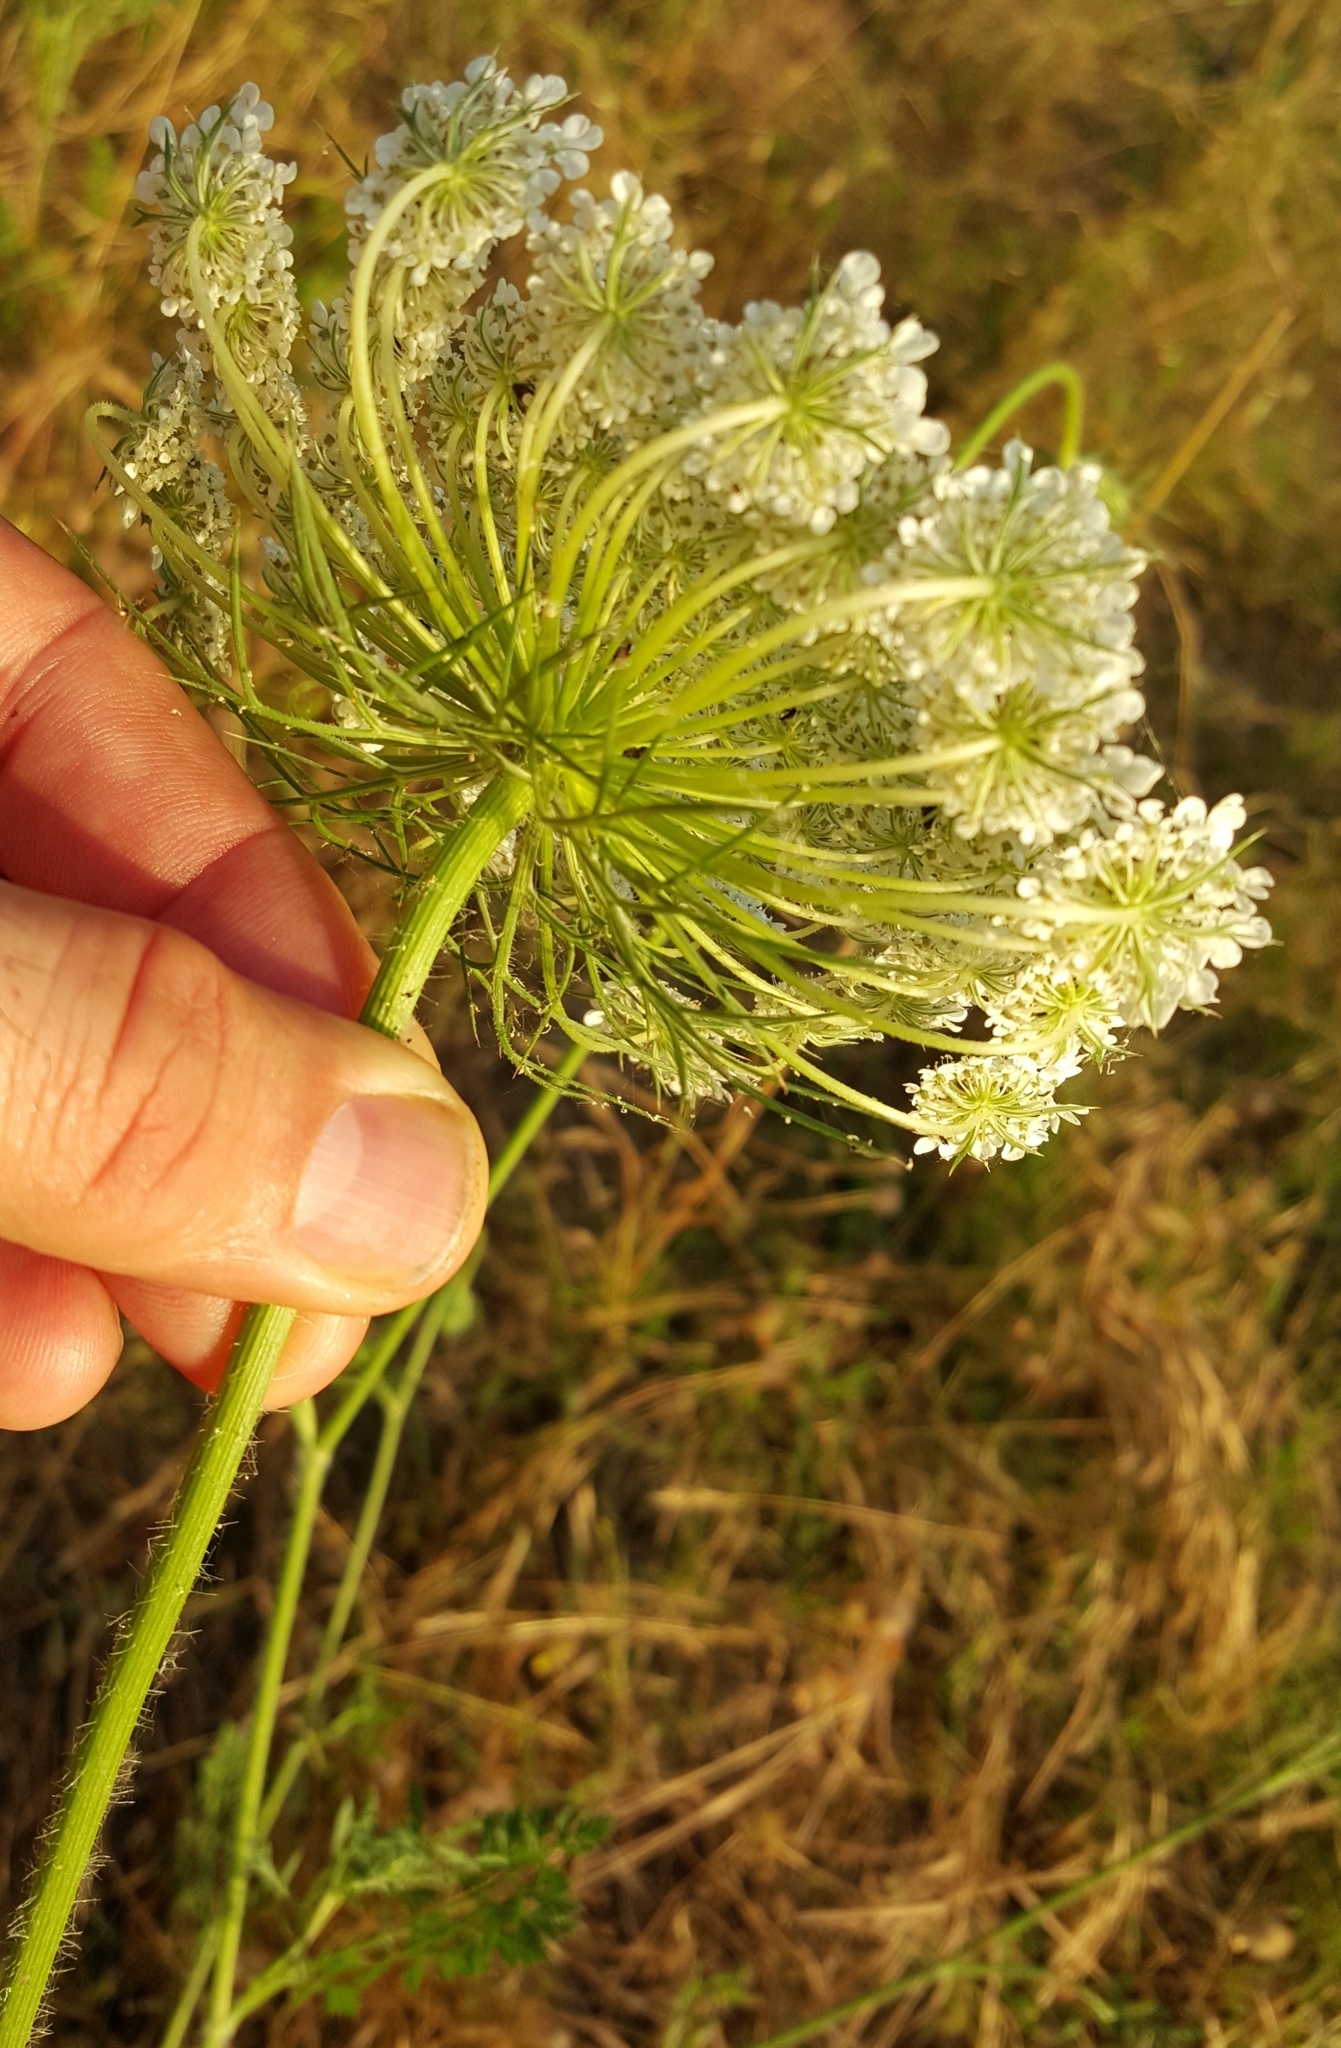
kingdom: Plantae
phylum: Tracheophyta
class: Magnoliopsida
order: Apiales
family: Apiaceae
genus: Daucus
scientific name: Daucus carota
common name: Wild carrot
